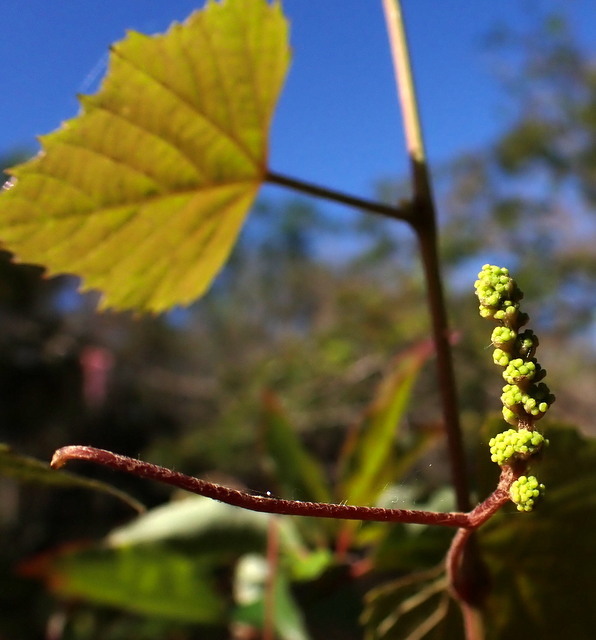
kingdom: Plantae
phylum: Tracheophyta
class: Magnoliopsida
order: Vitales
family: Vitaceae
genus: Vitis
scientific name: Vitis rotundifolia
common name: Muscadine grape
